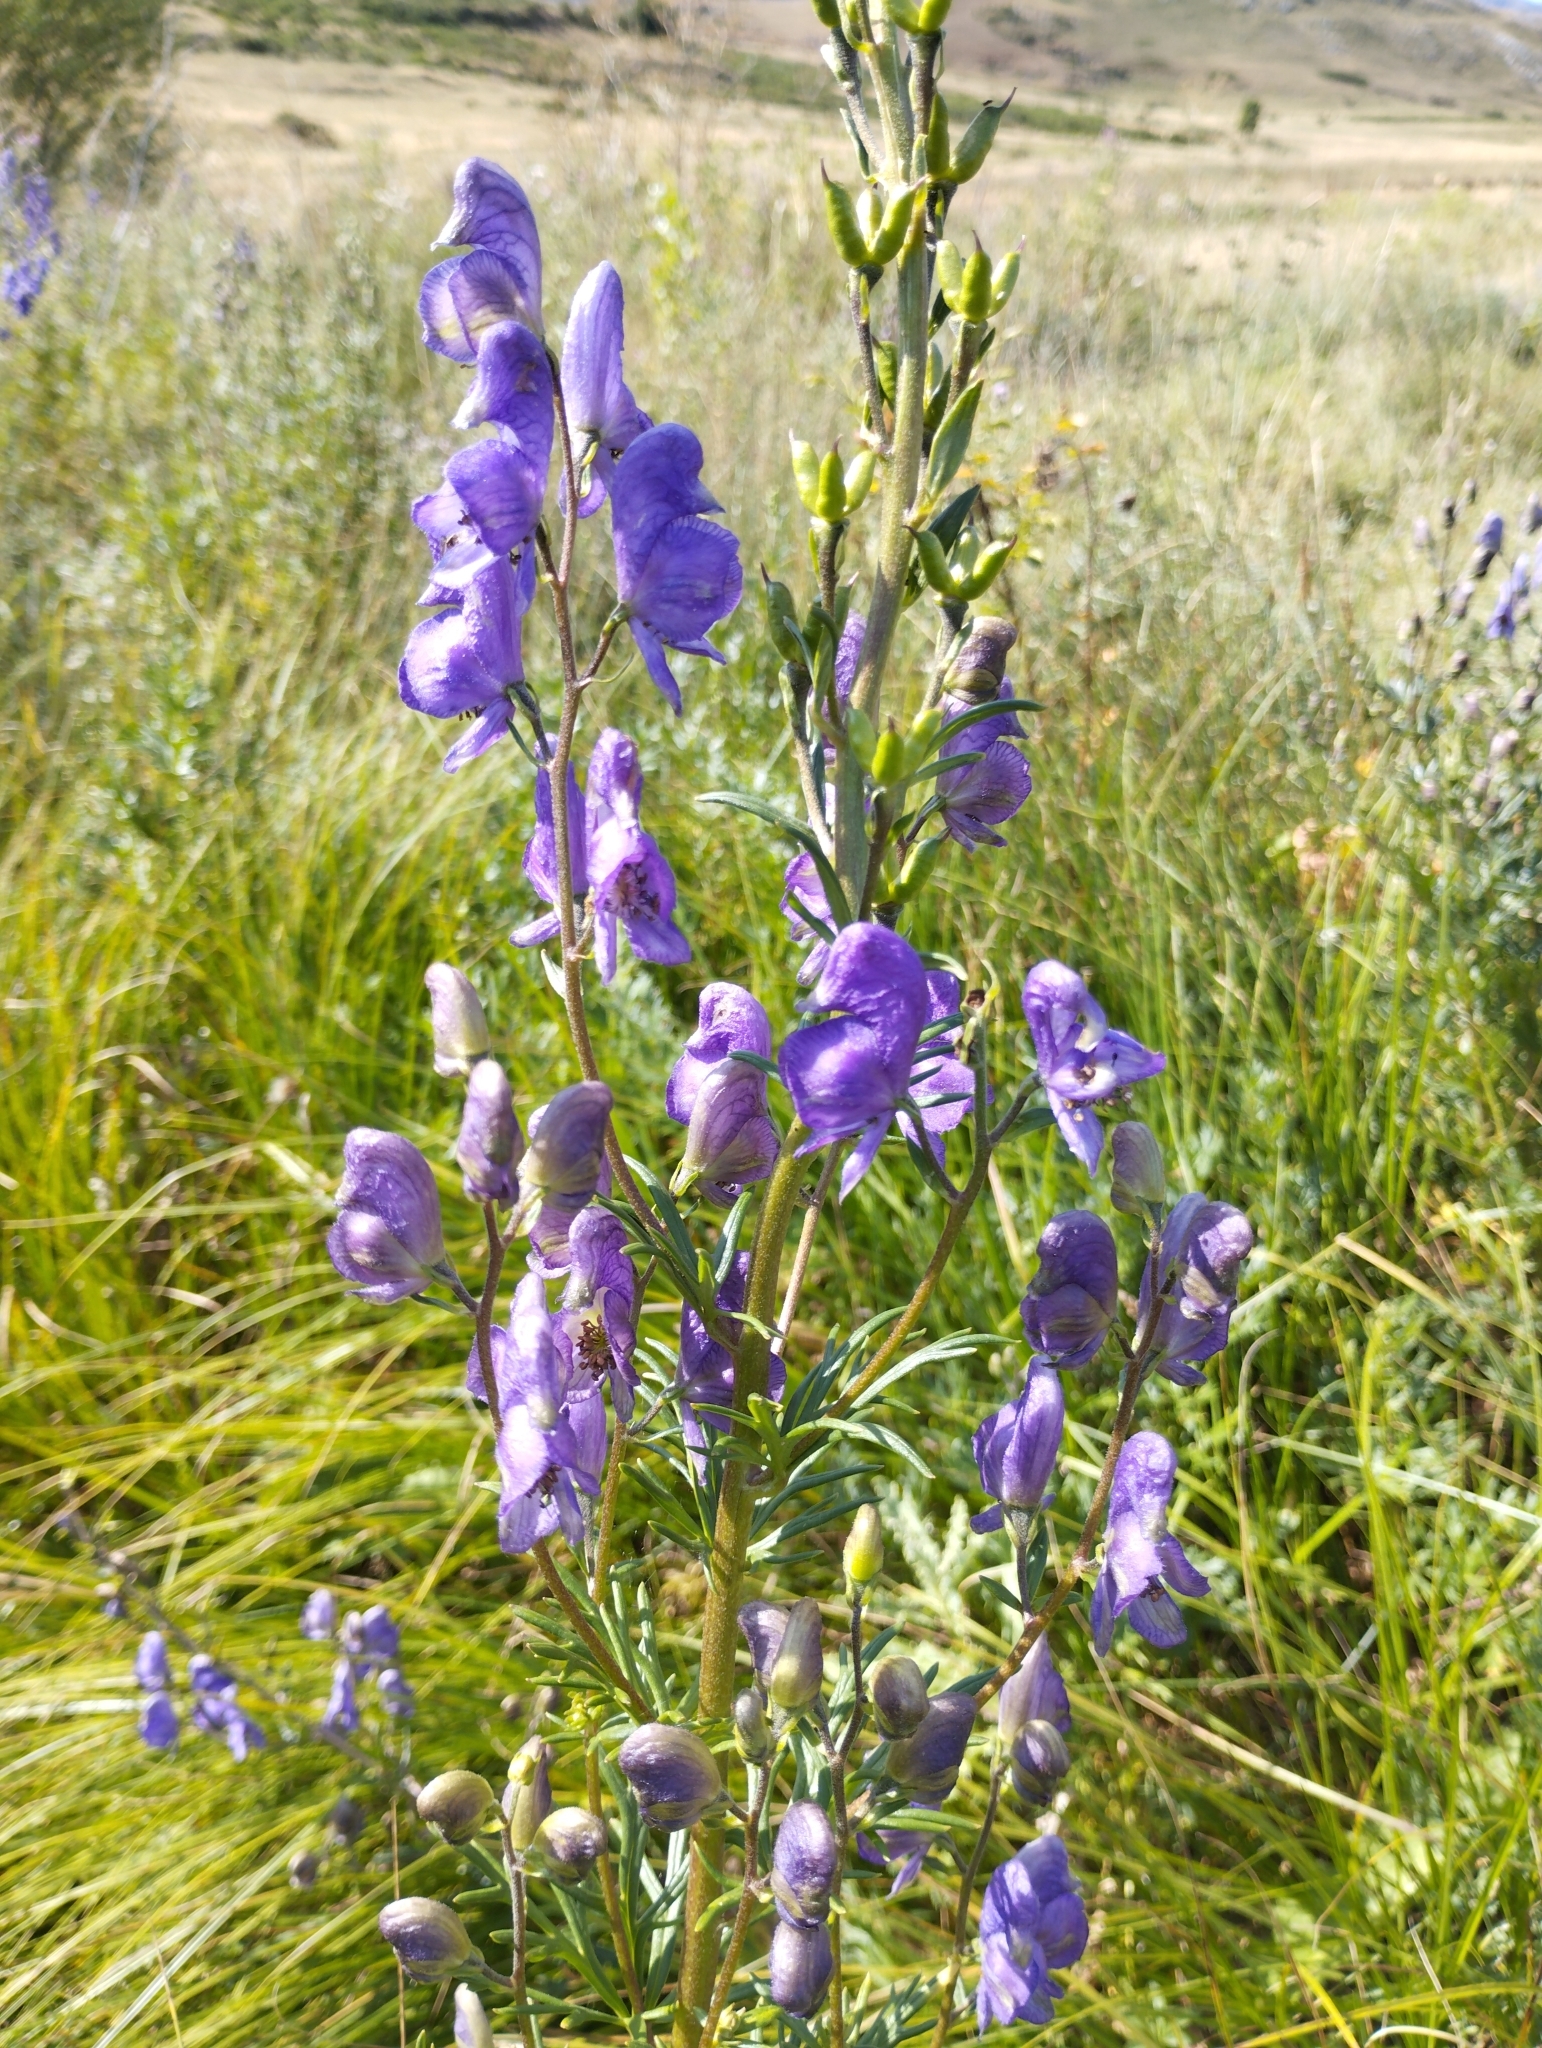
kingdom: Plantae
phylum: Tracheophyta
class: Magnoliopsida
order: Ranunculales
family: Ranunculaceae
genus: Aconitum
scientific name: Aconitum napellus
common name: Garden monkshood
